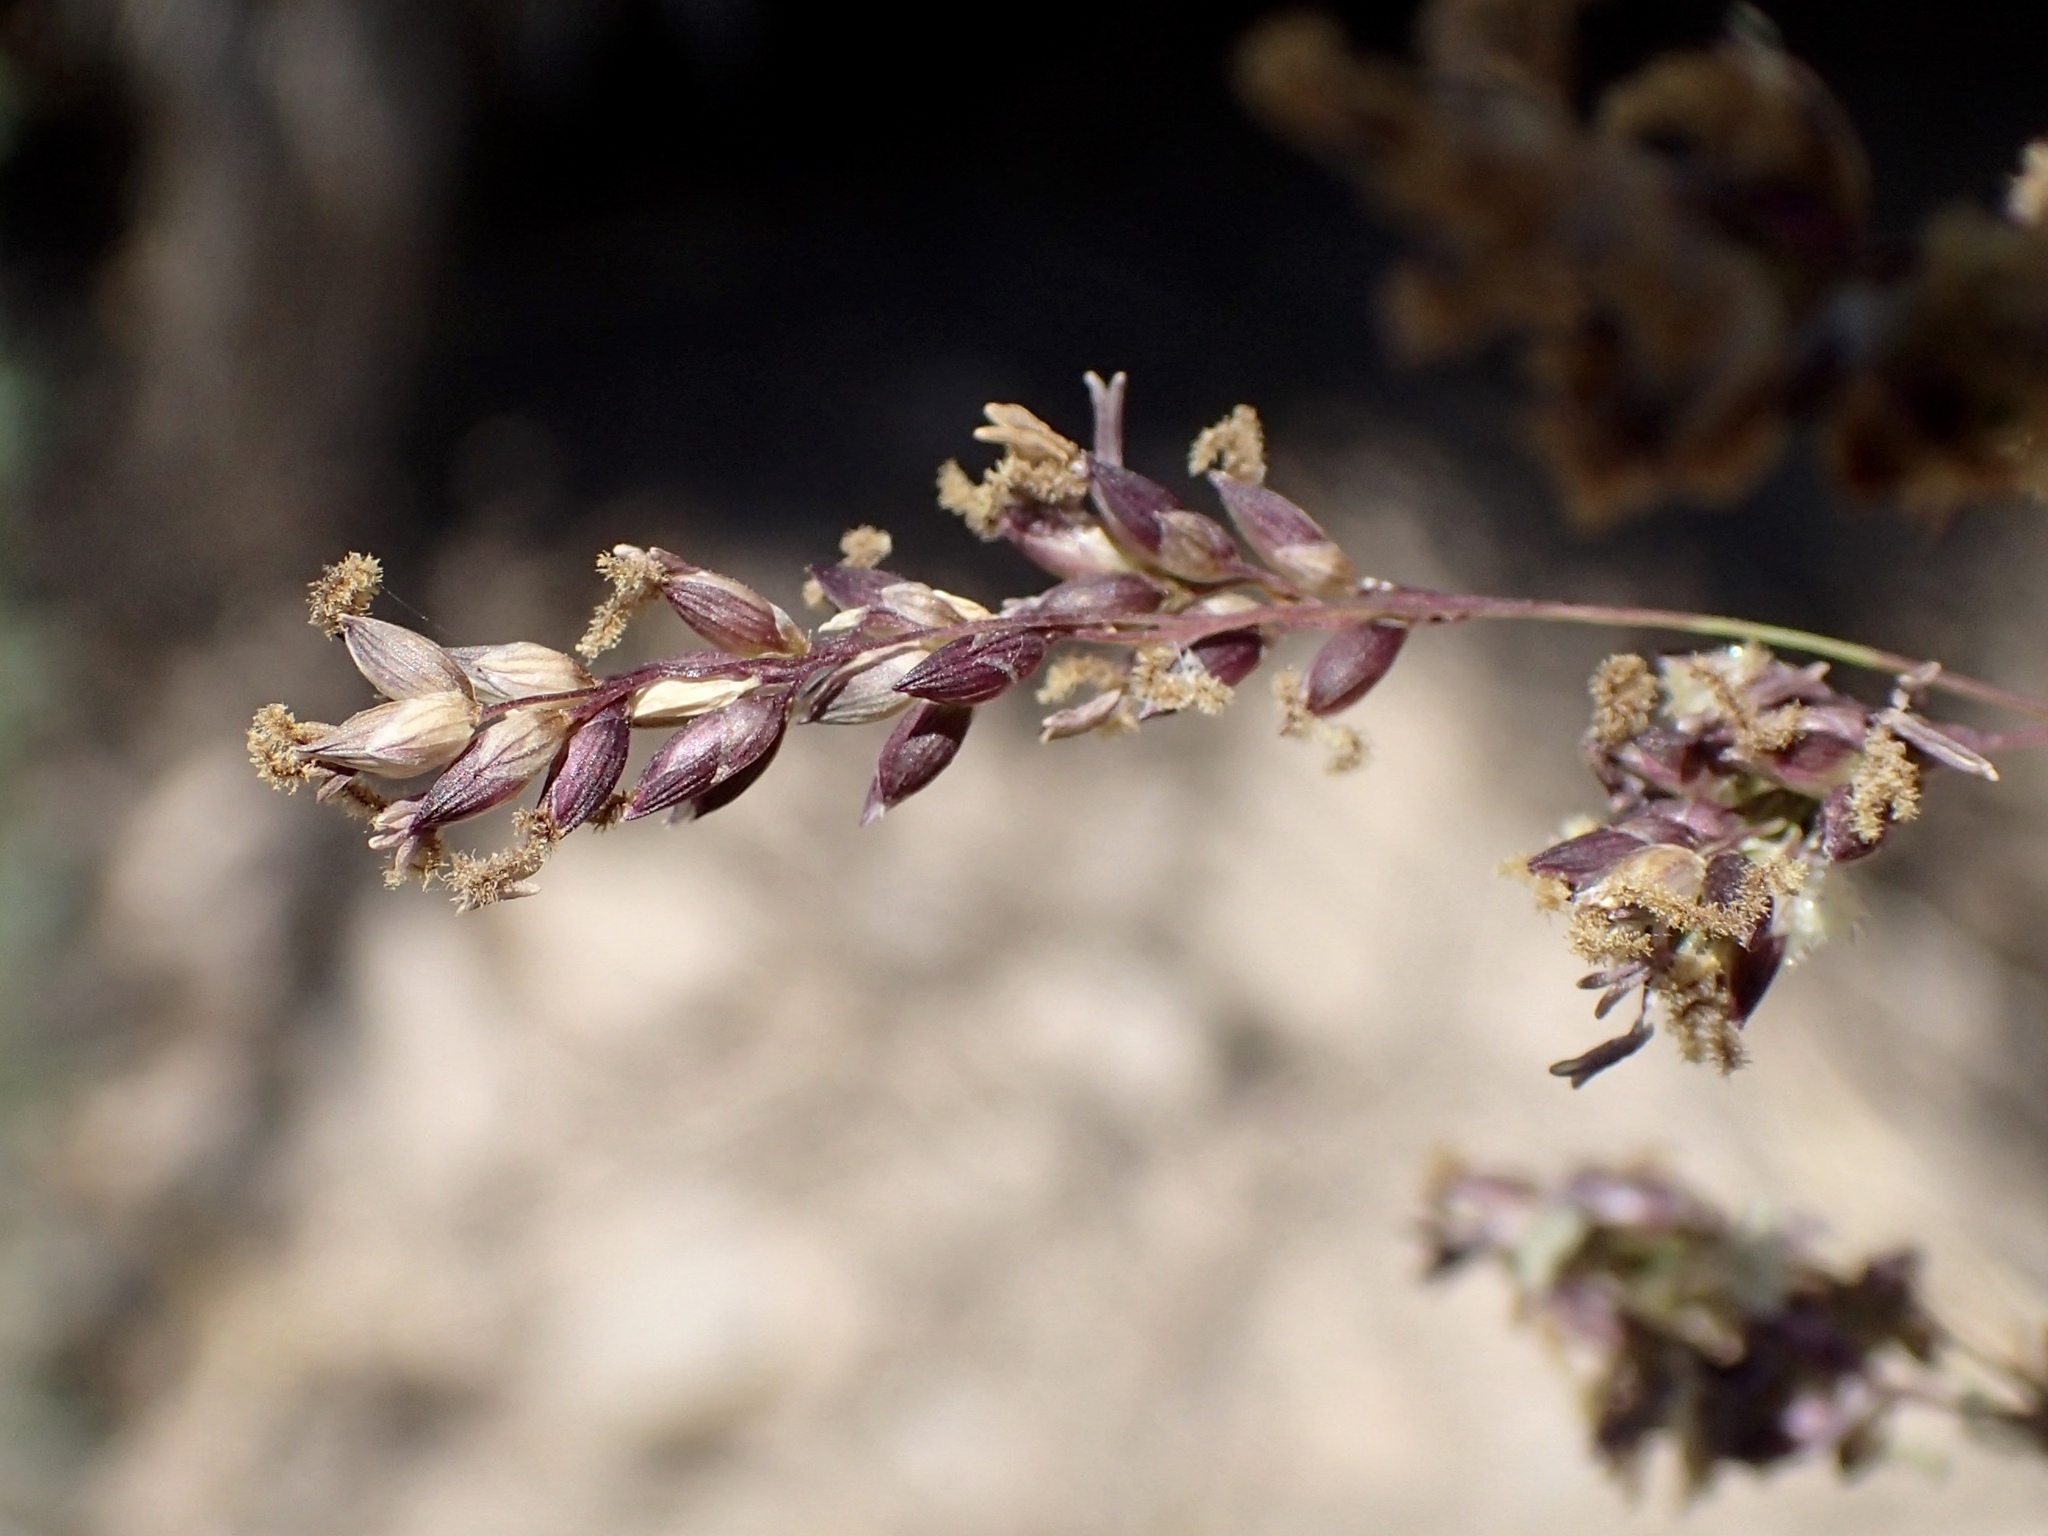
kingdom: Plantae
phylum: Tracheophyta
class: Liliopsida
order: Poales
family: Poaceae
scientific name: Poaceae
